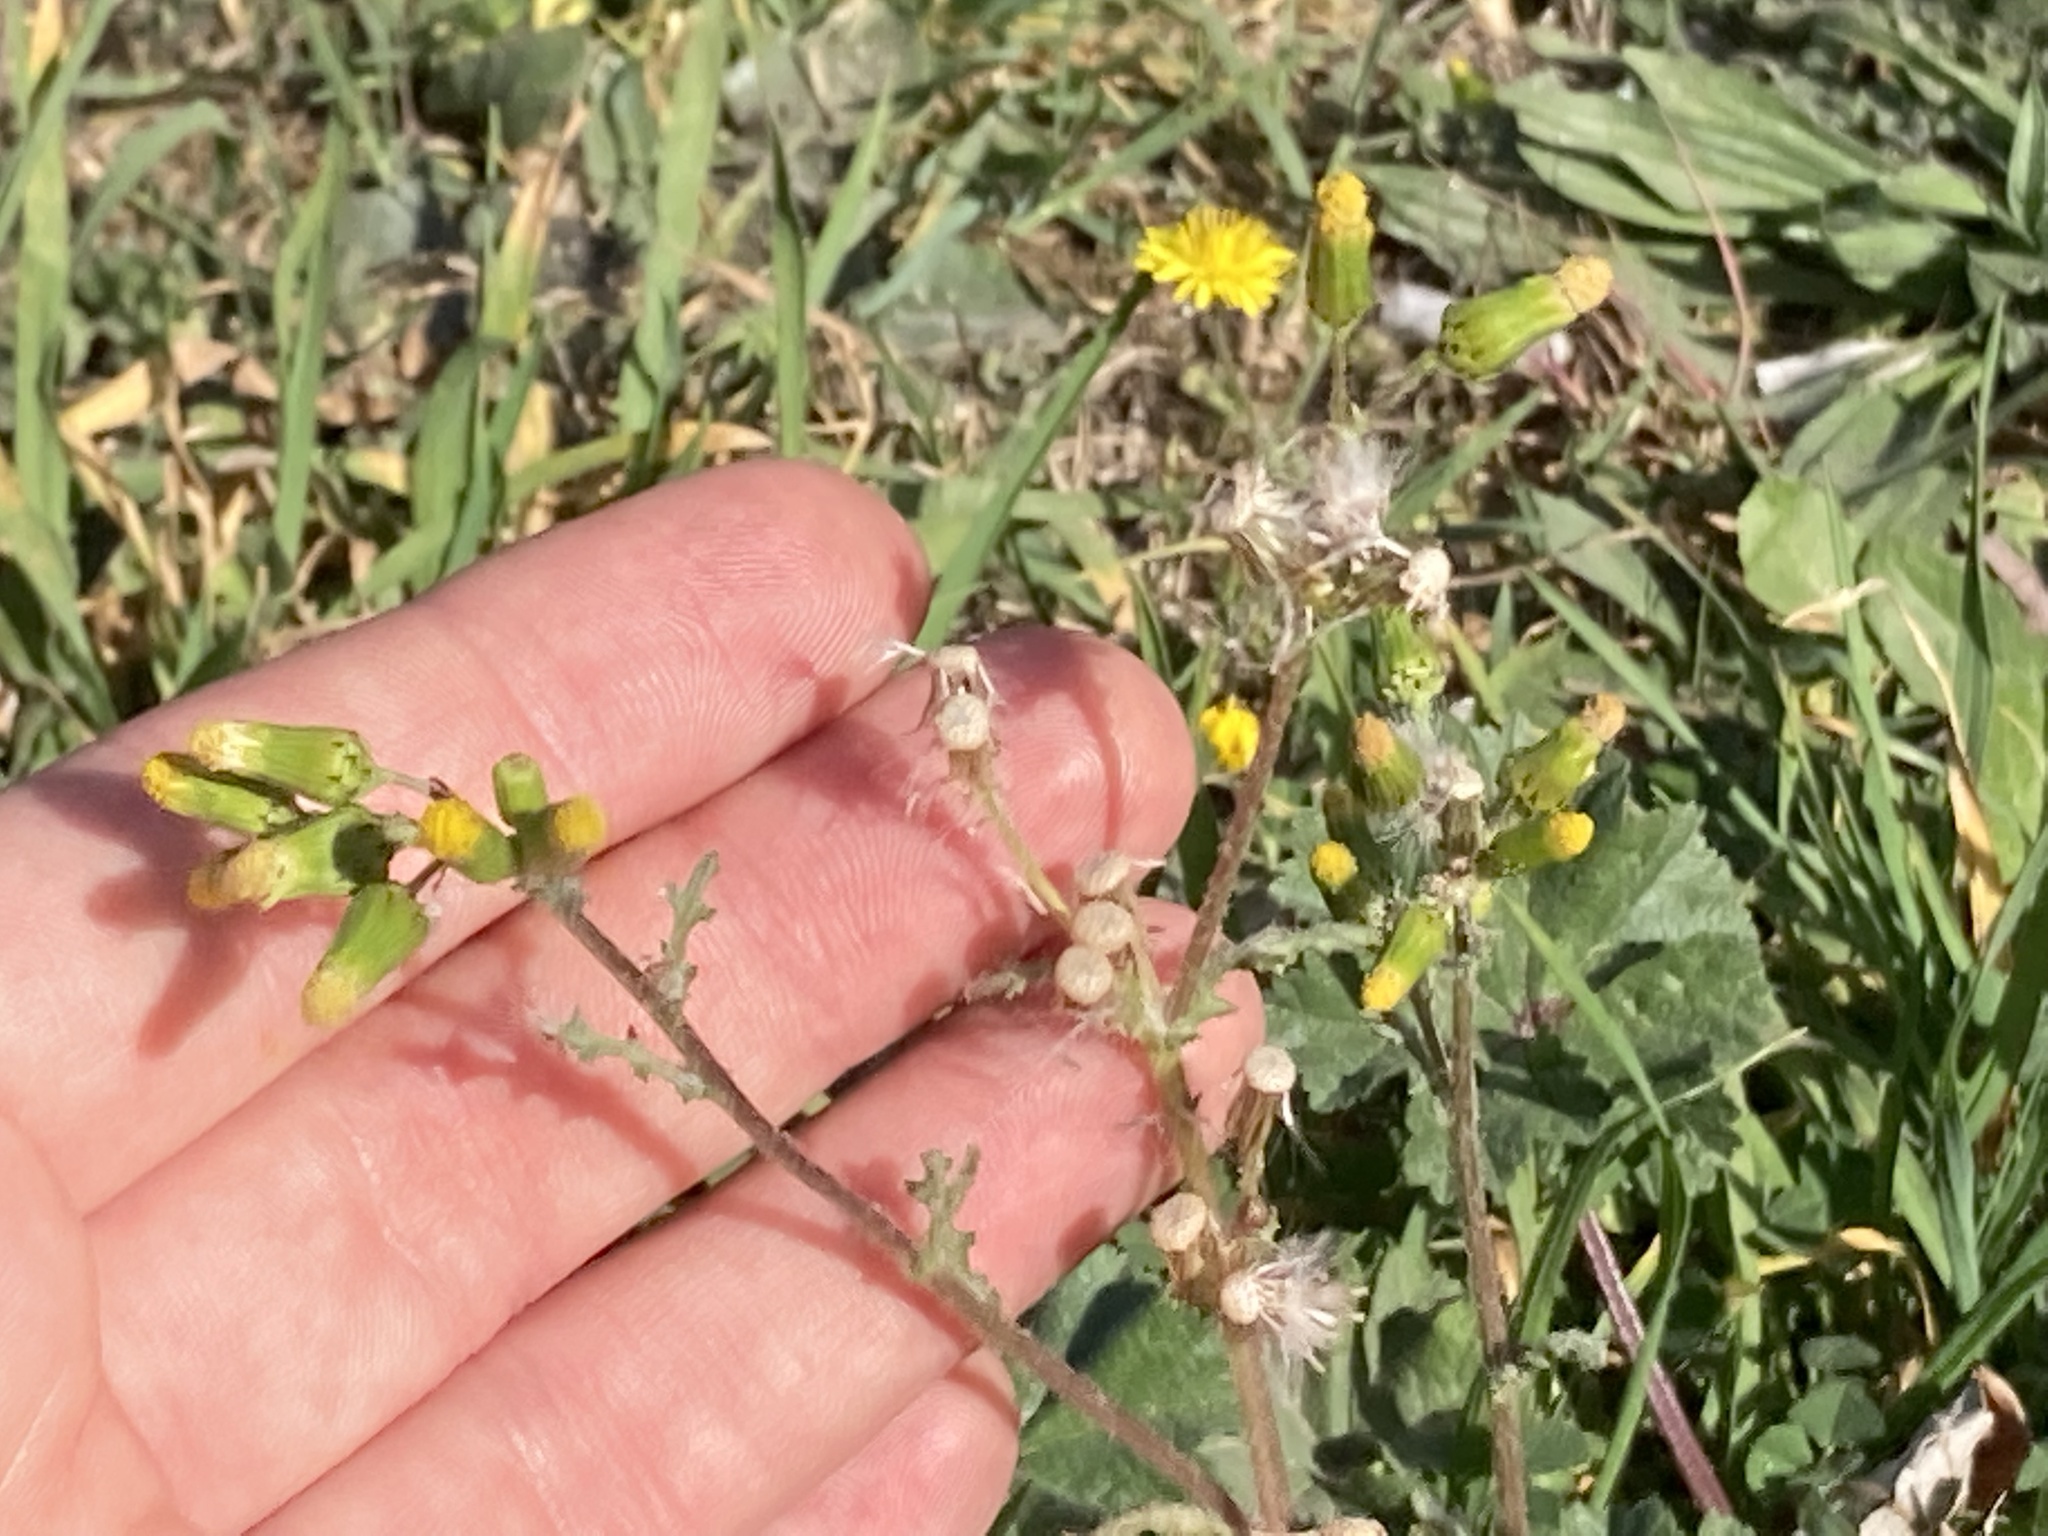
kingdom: Plantae
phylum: Tracheophyta
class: Magnoliopsida
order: Asterales
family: Asteraceae
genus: Senecio
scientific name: Senecio vulgaris
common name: Old-man-in-the-spring
